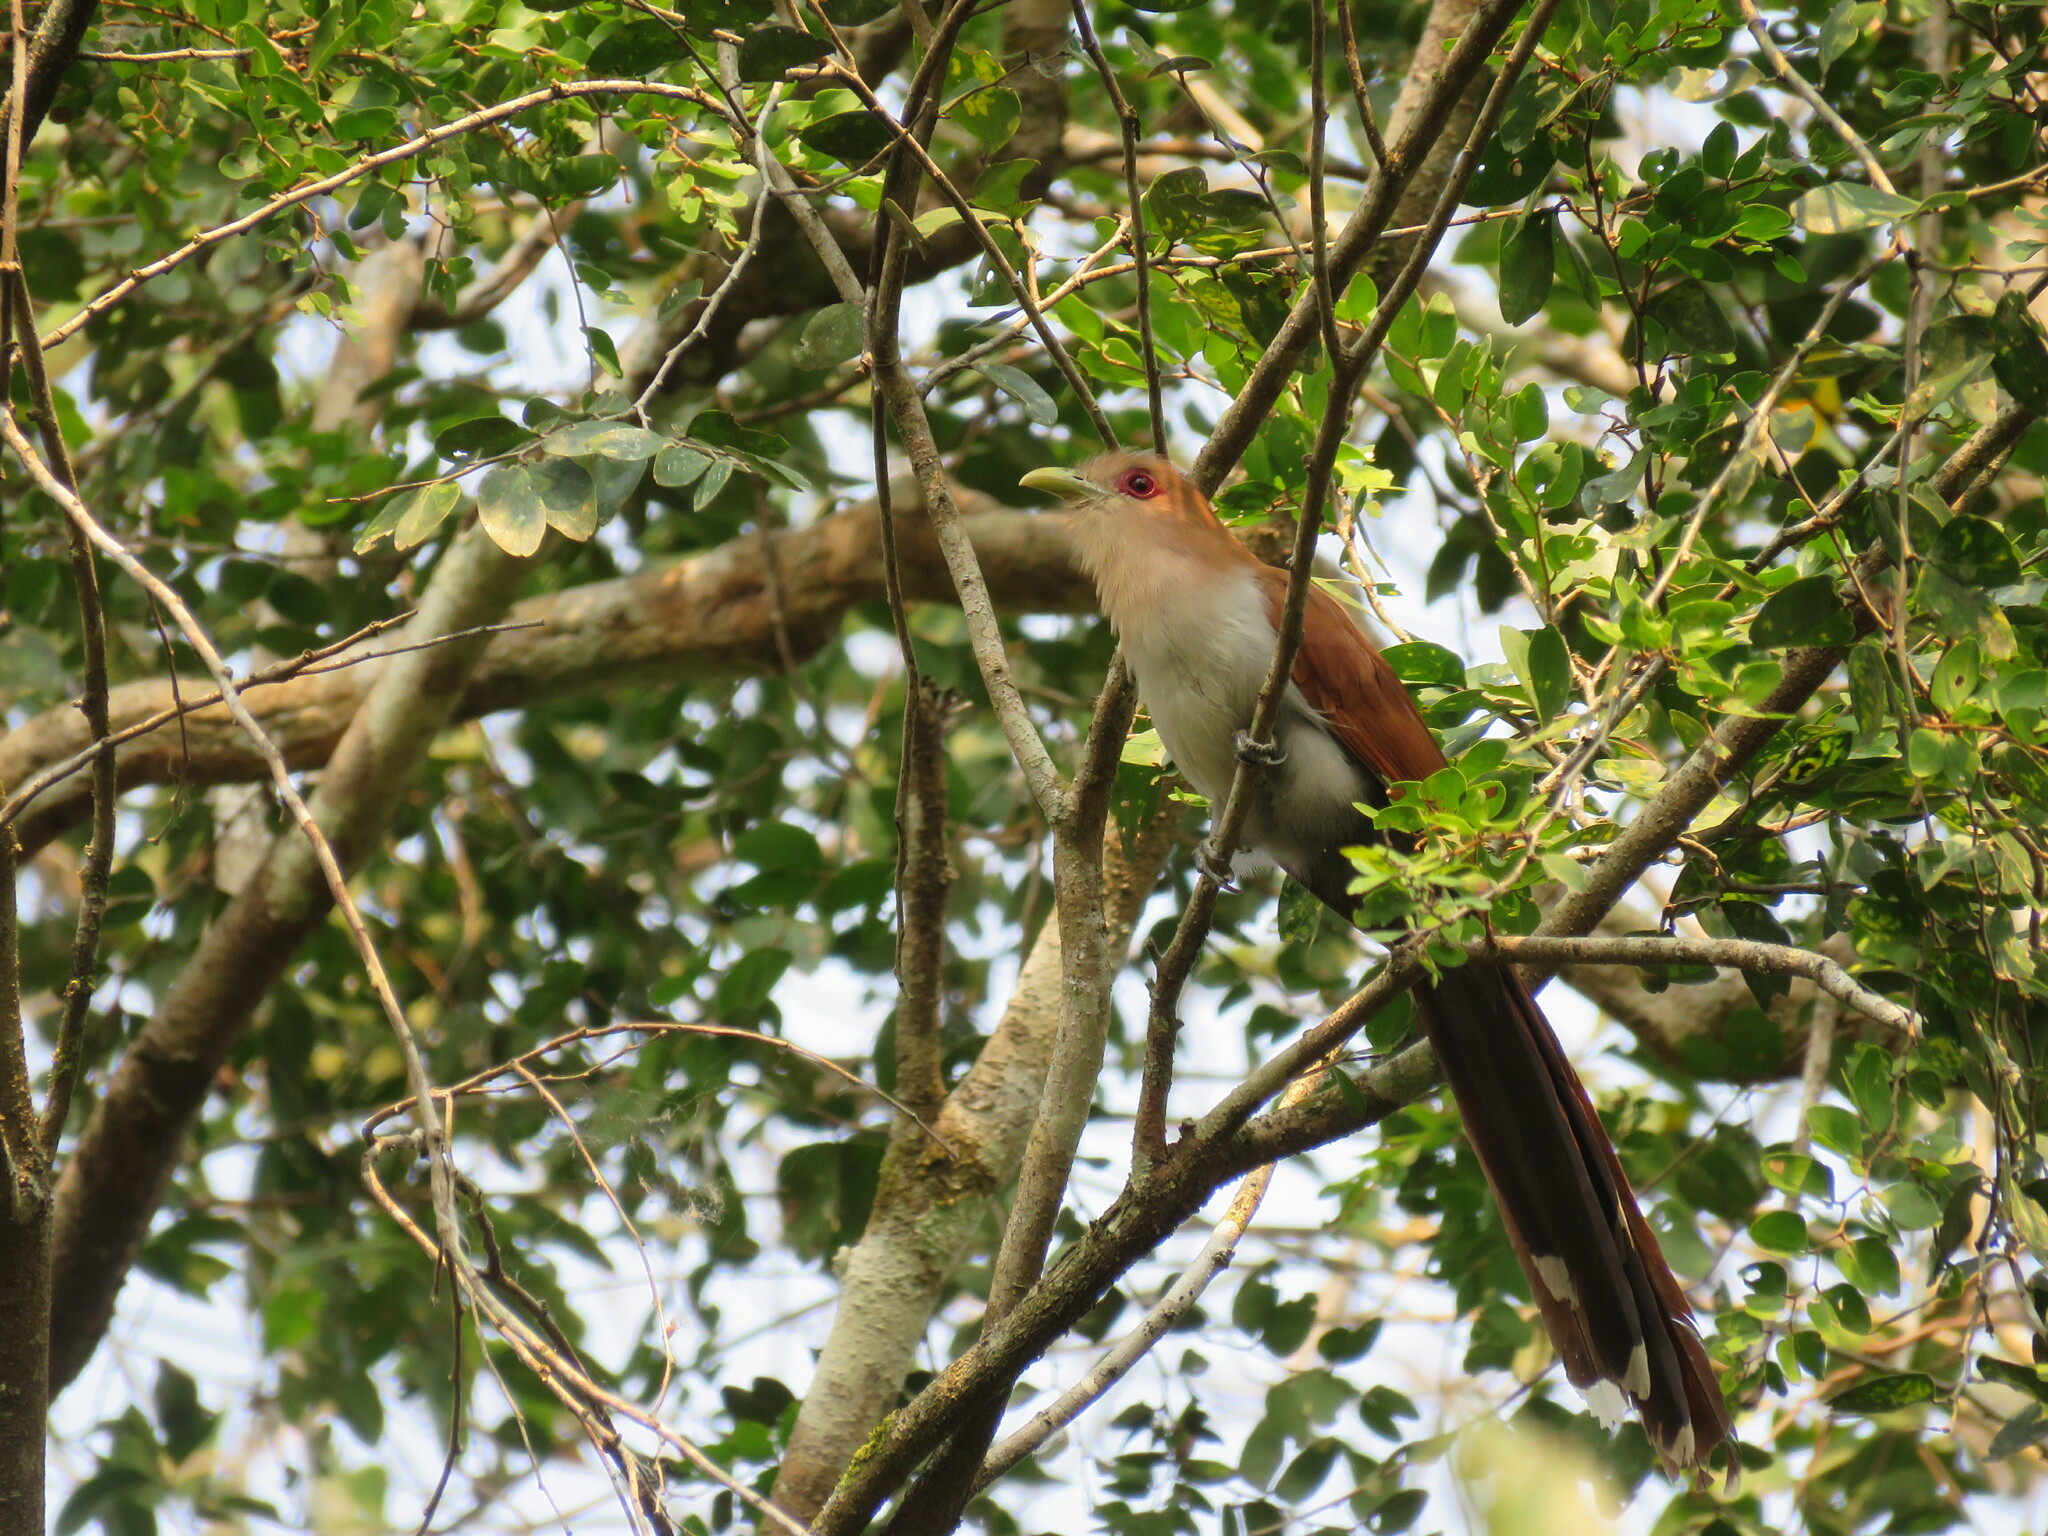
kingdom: Animalia
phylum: Chordata
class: Aves
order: Cuculiformes
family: Cuculidae
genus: Piaya
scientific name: Piaya cayana
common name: Squirrel cuckoo
